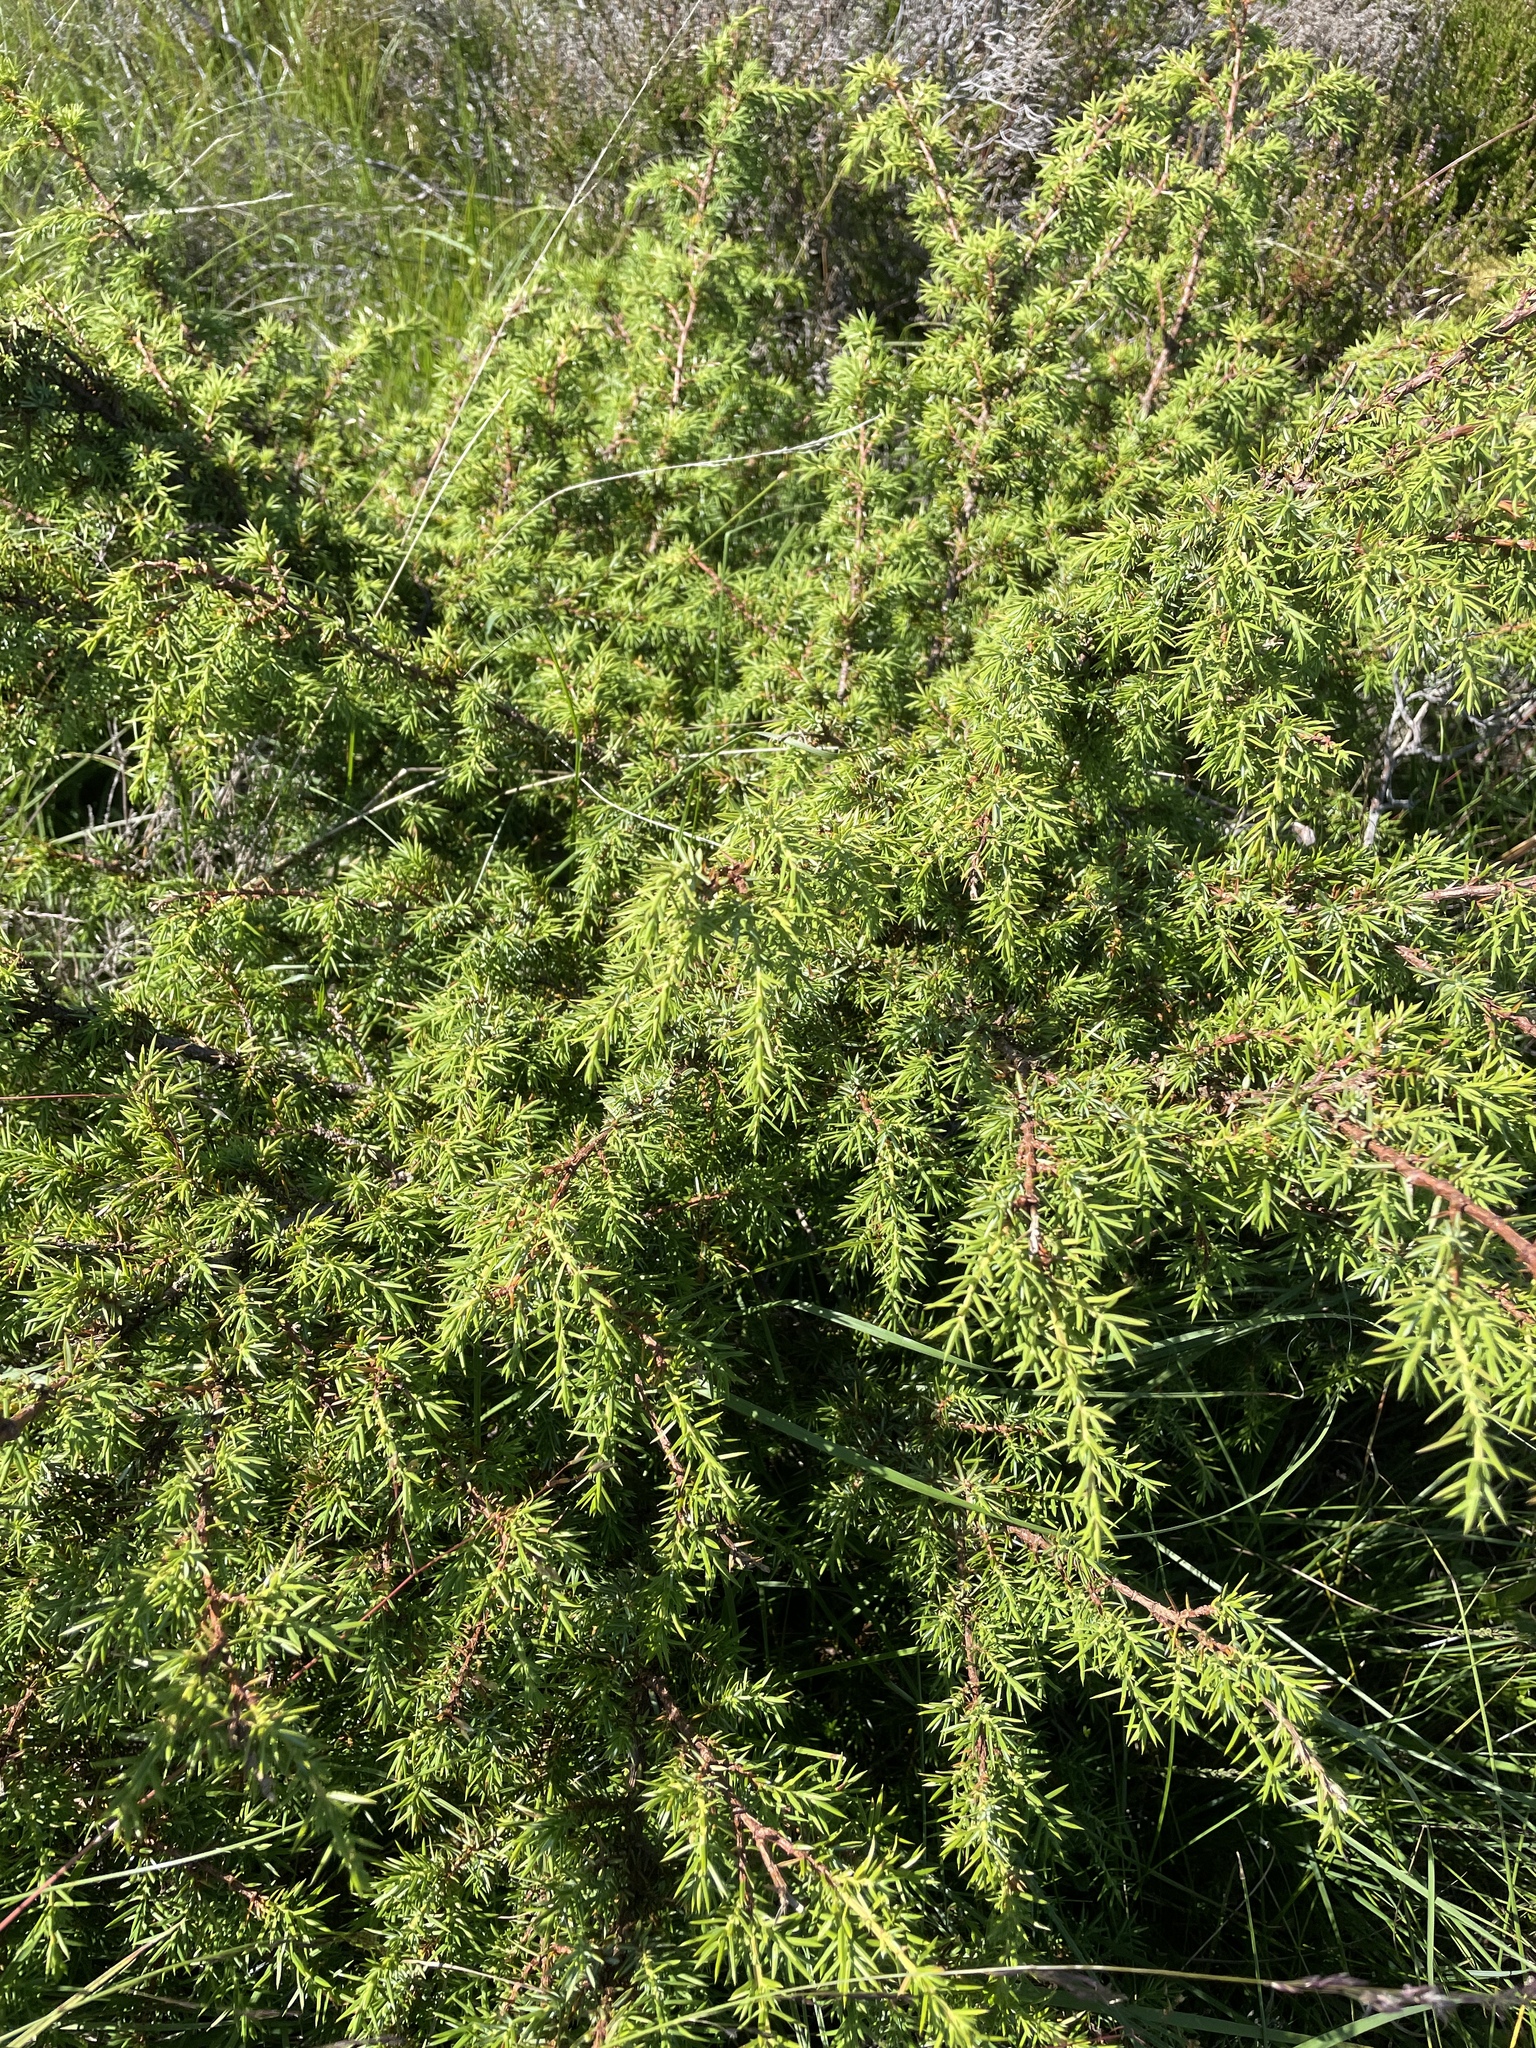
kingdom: Plantae
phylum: Tracheophyta
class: Pinopsida
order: Pinales
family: Cupressaceae
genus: Juniperus
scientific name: Juniperus communis
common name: Common juniper
